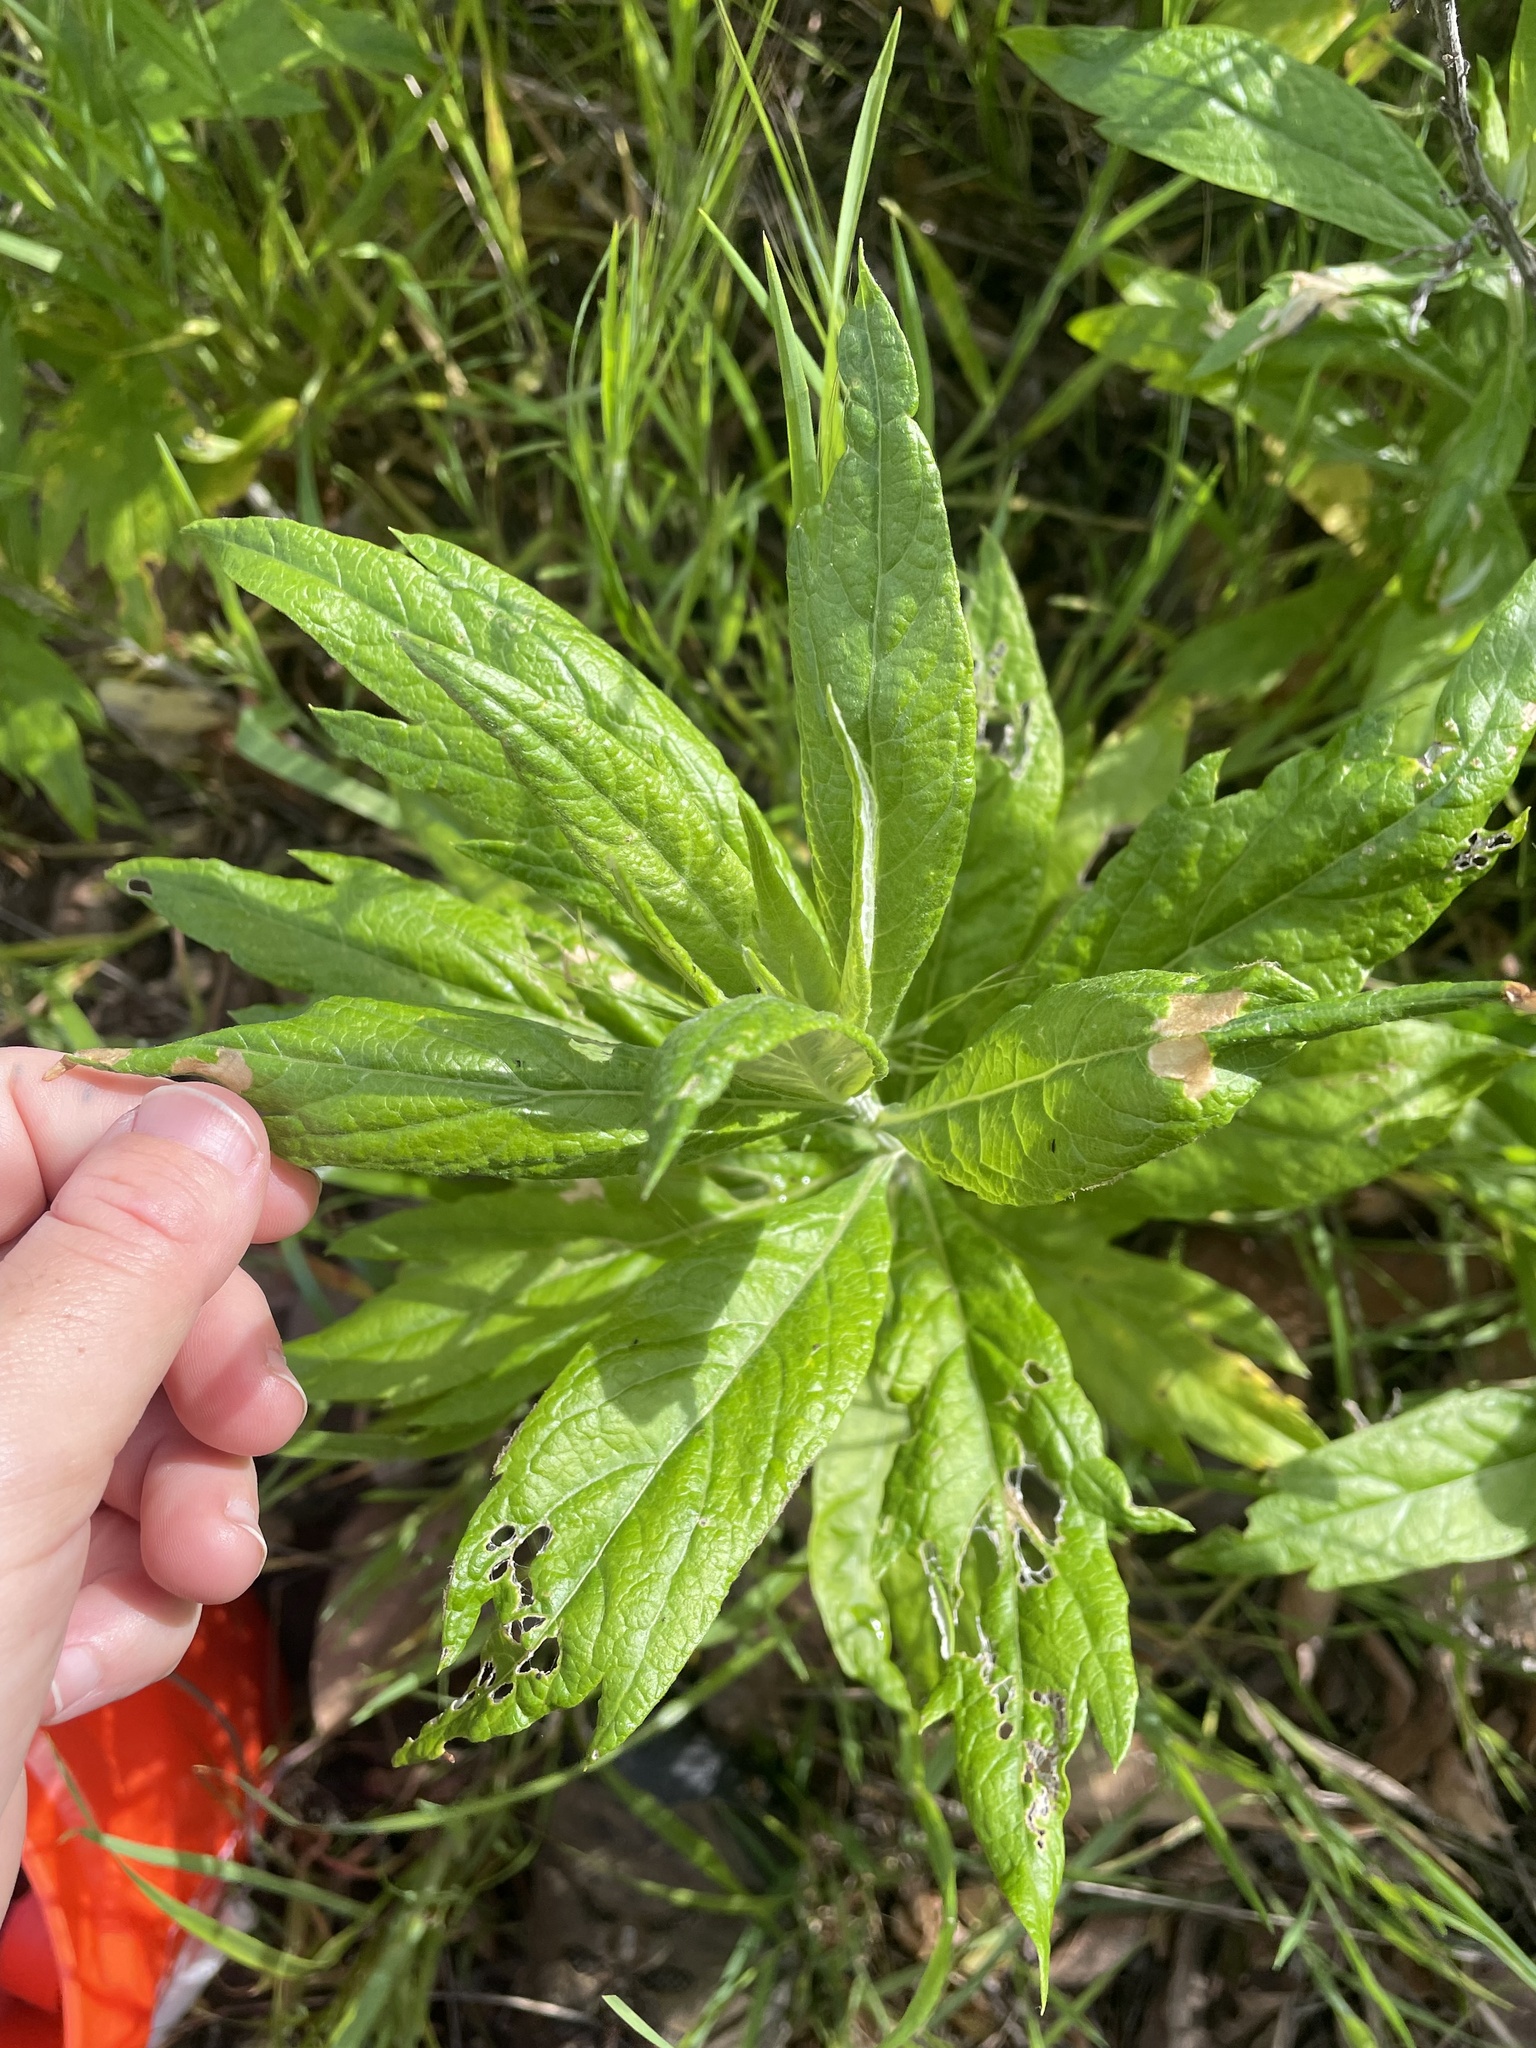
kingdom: Plantae
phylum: Tracheophyta
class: Magnoliopsida
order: Asterales
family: Asteraceae
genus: Artemisia
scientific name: Artemisia douglasiana
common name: Northwest mugwort
